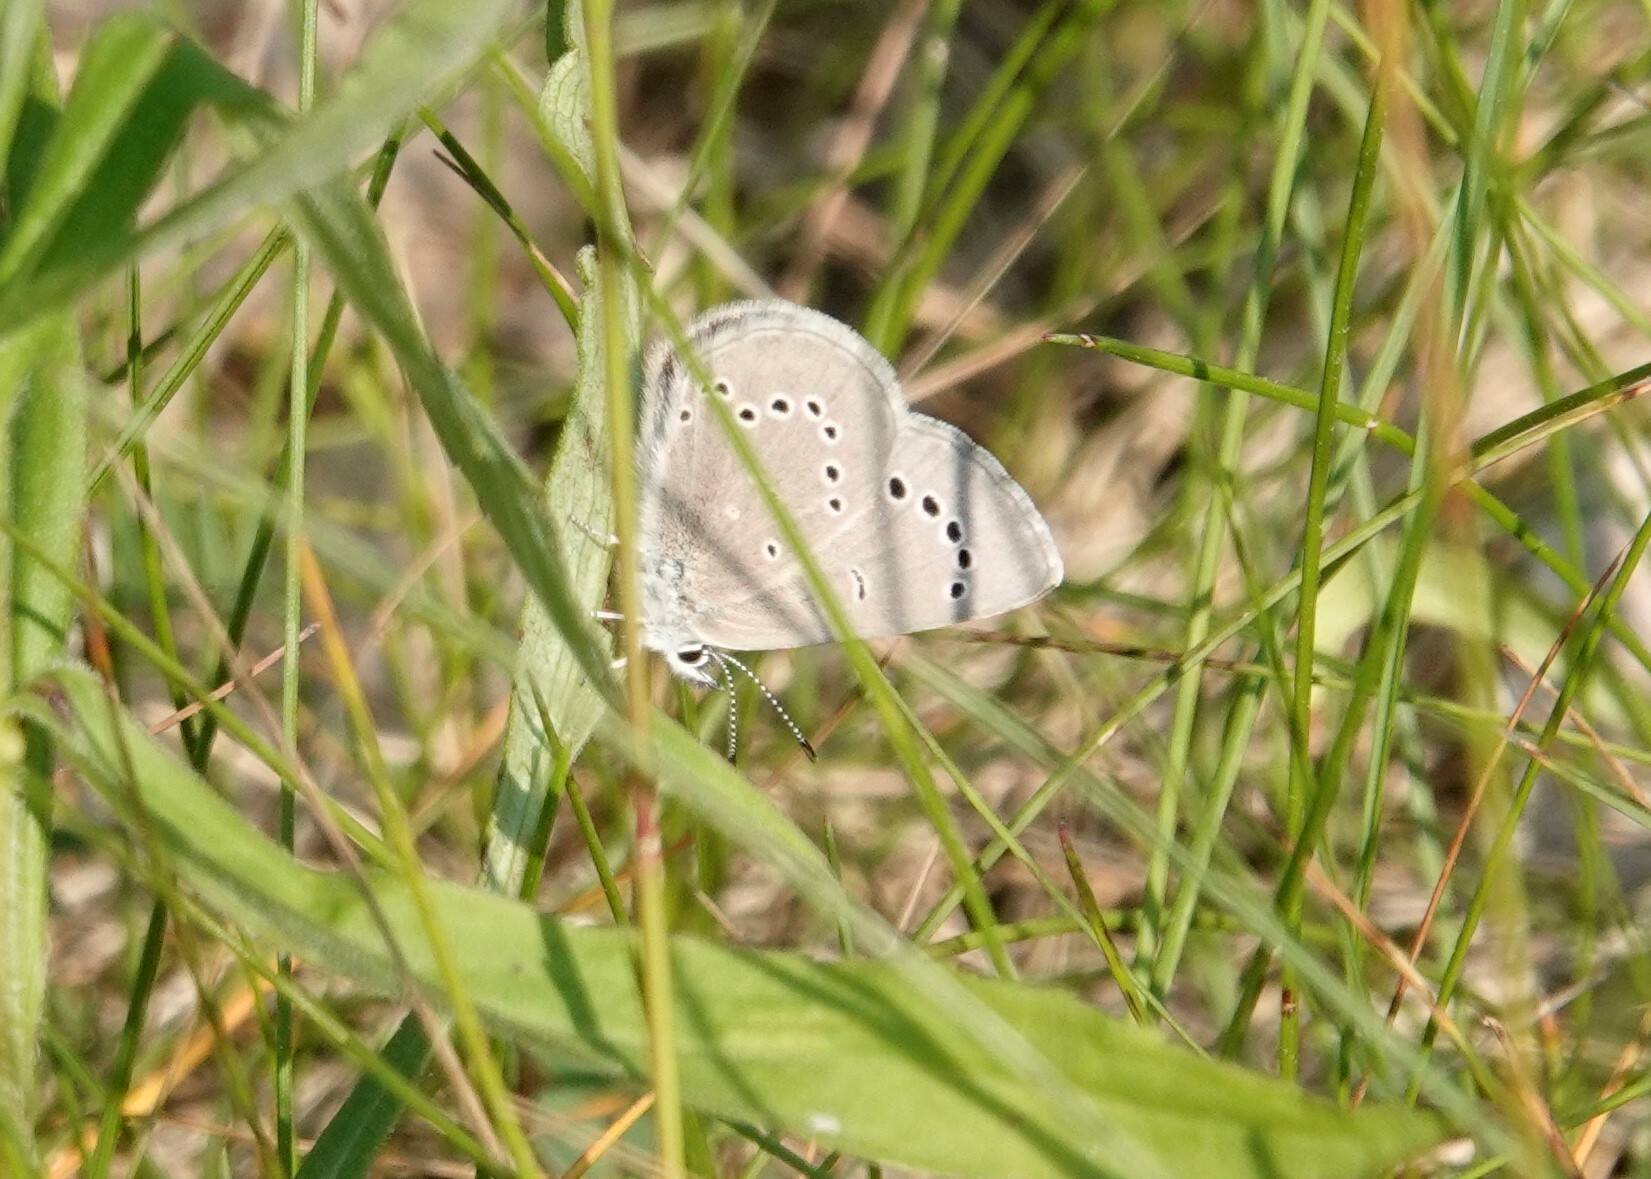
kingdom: Animalia
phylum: Arthropoda
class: Insecta
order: Lepidoptera
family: Lycaenidae
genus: Glaucopsyche
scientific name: Glaucopsyche lygdamus
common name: Silvery blue
